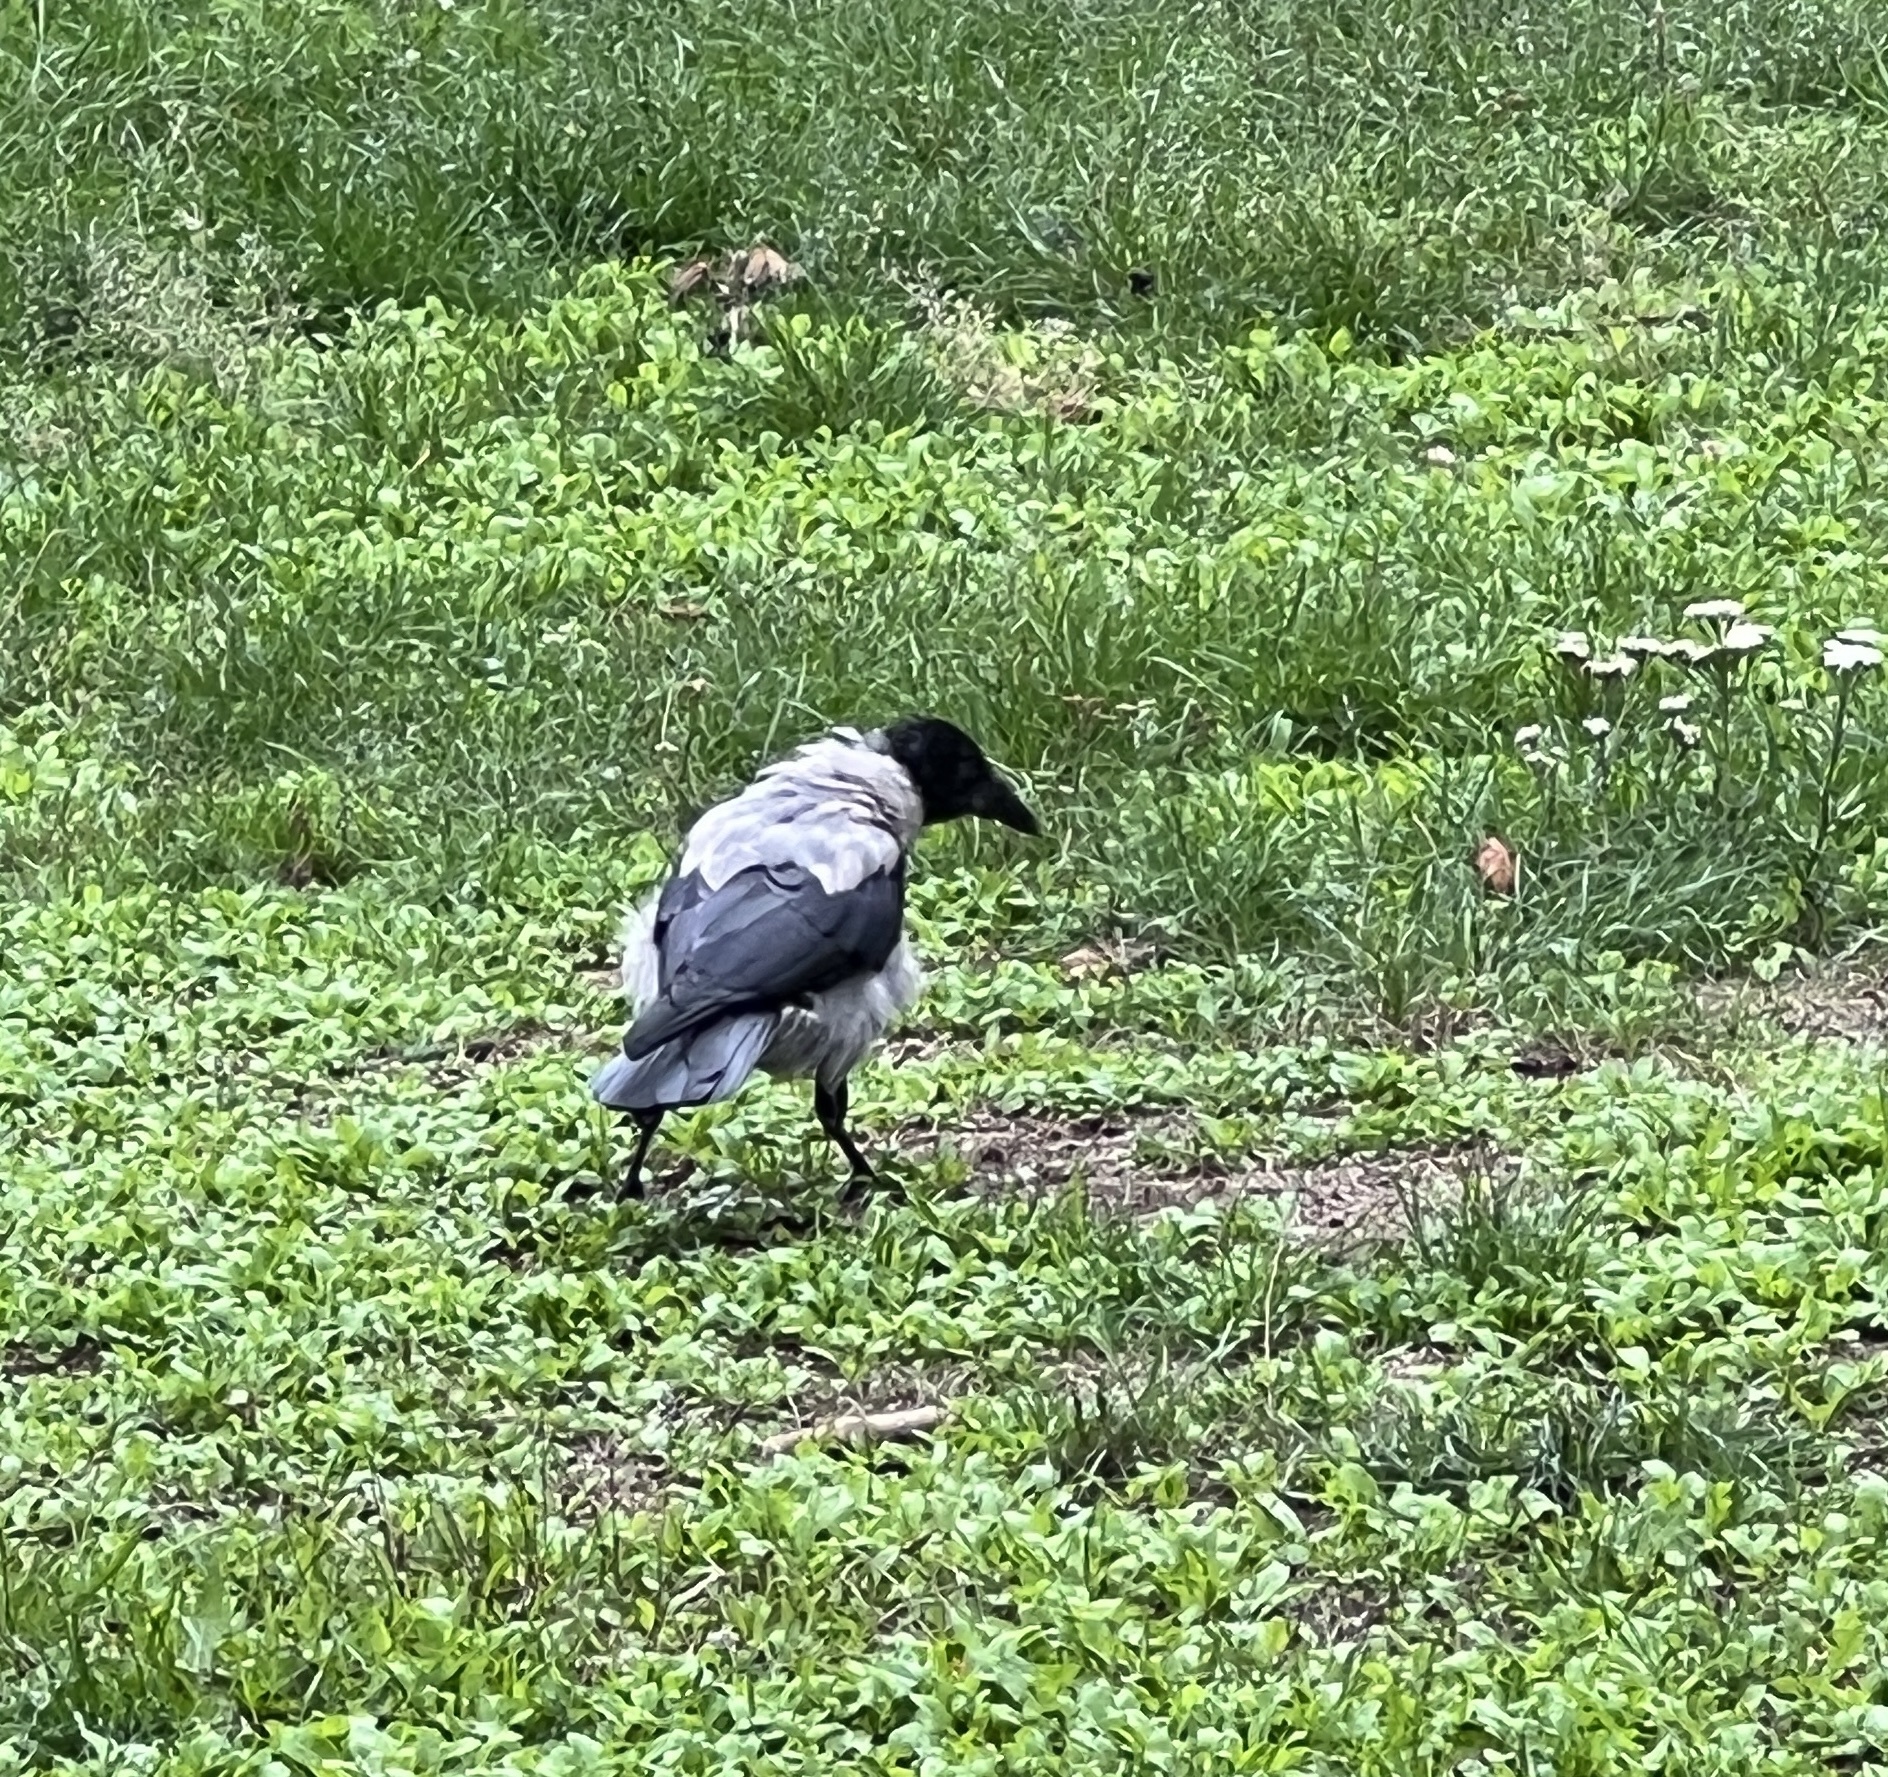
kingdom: Animalia
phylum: Chordata
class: Aves
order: Passeriformes
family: Corvidae
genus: Corvus
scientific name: Corvus cornix
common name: Hooded crow
